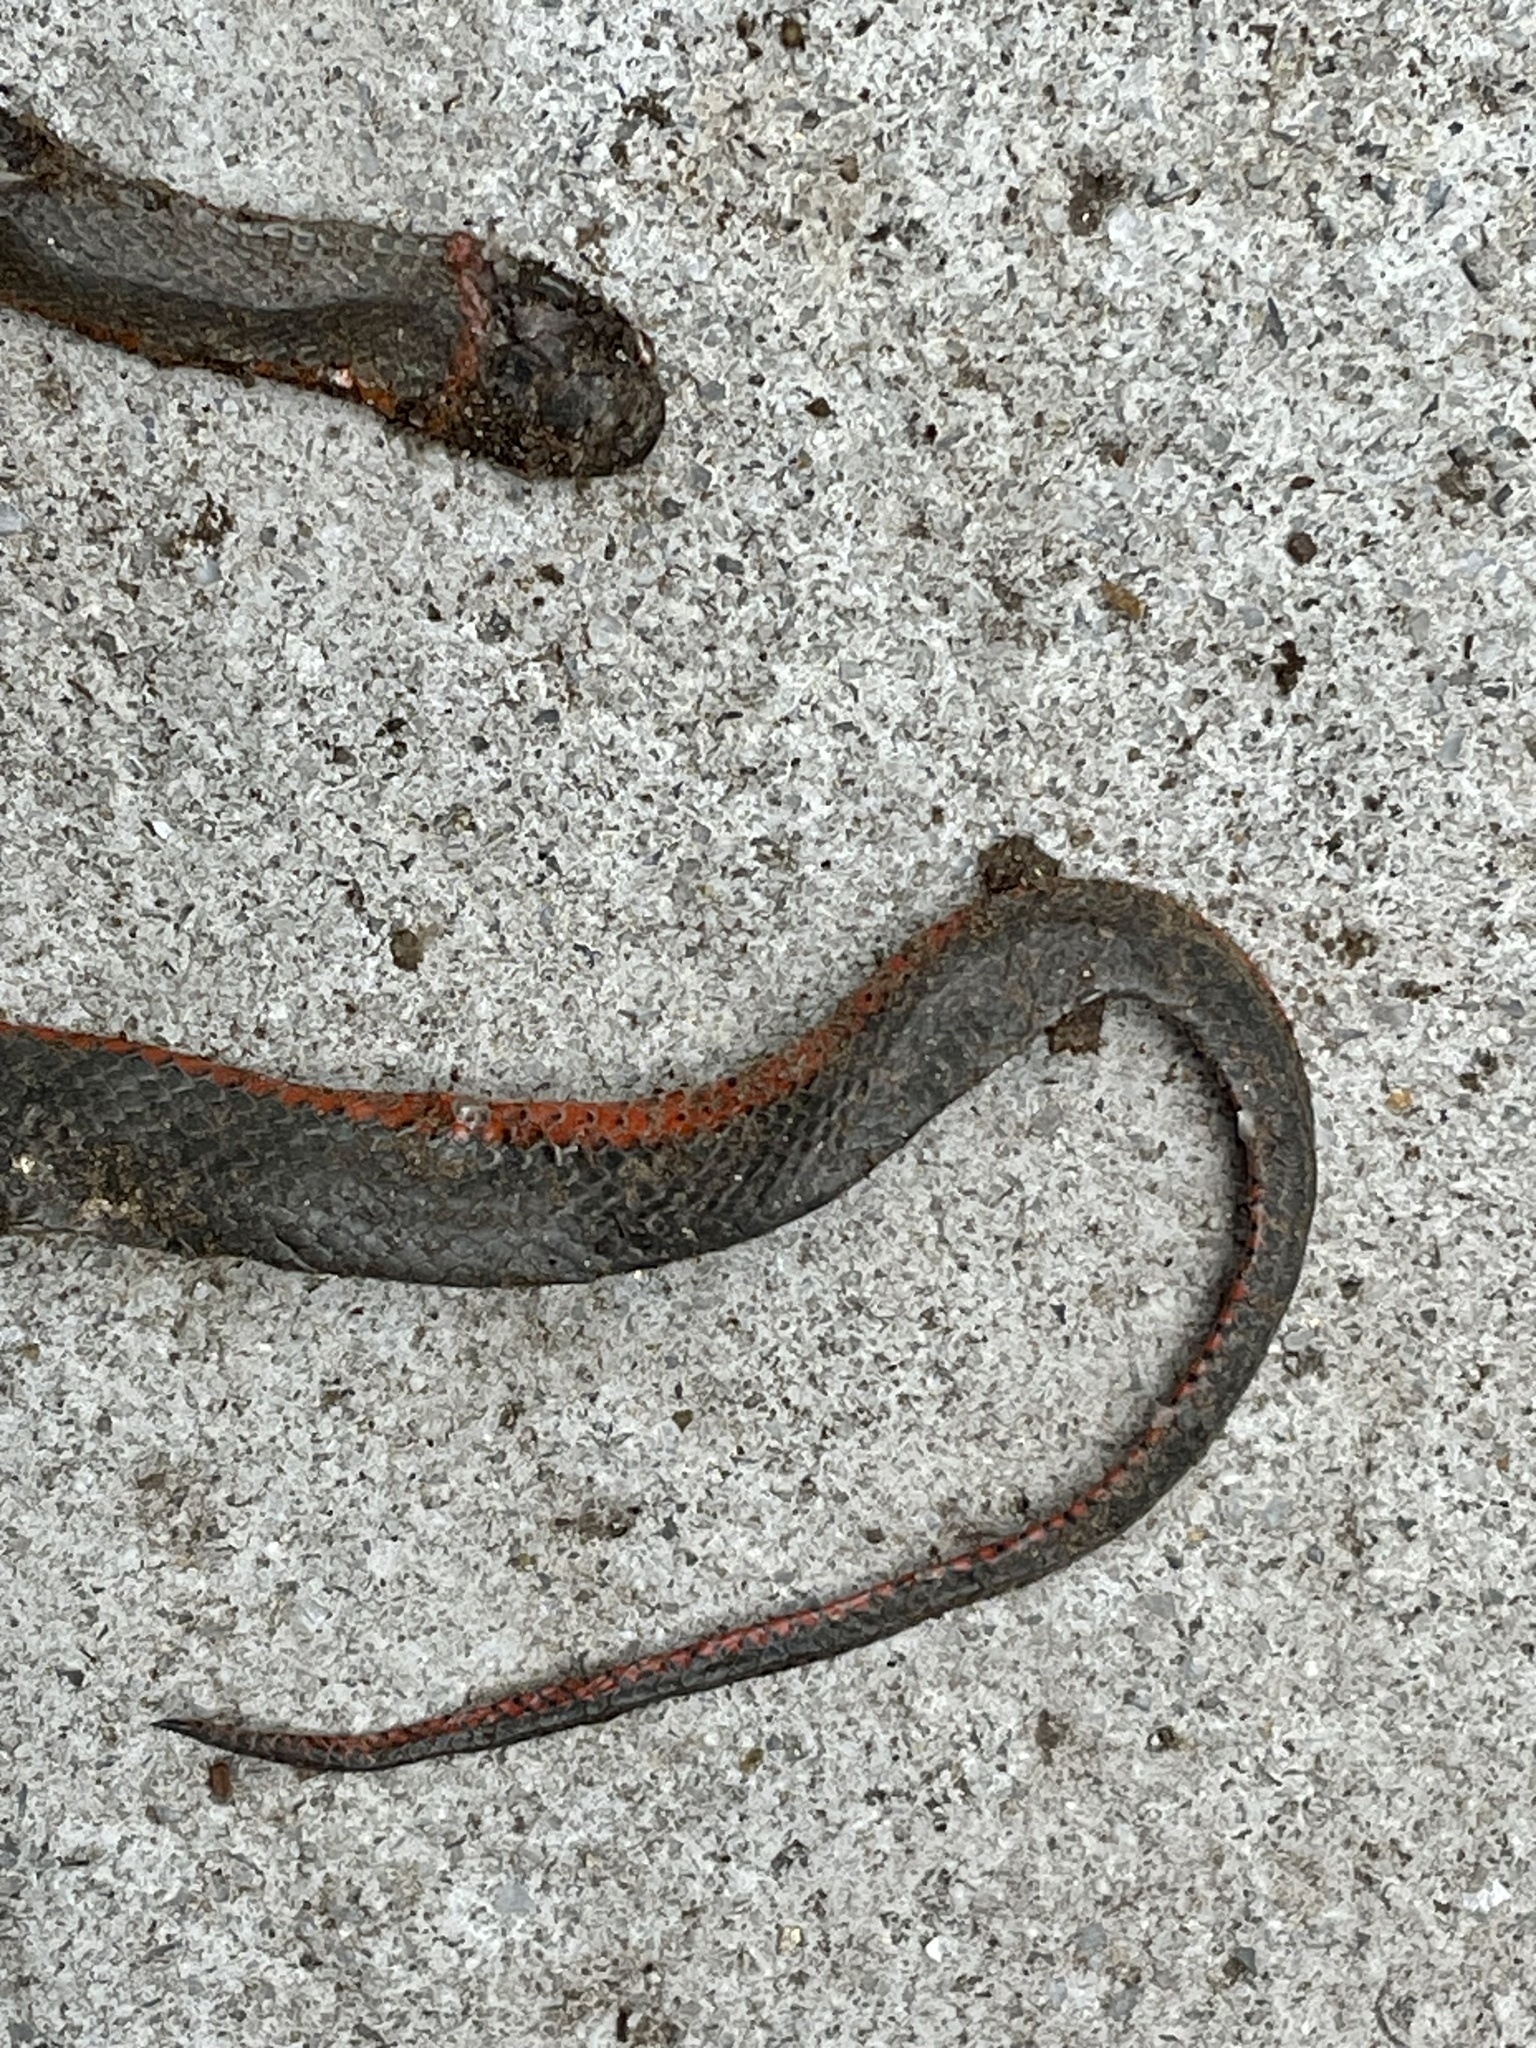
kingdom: Animalia
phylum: Chordata
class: Squamata
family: Colubridae
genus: Diadophis
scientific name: Diadophis punctatus
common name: Ringneck snake
